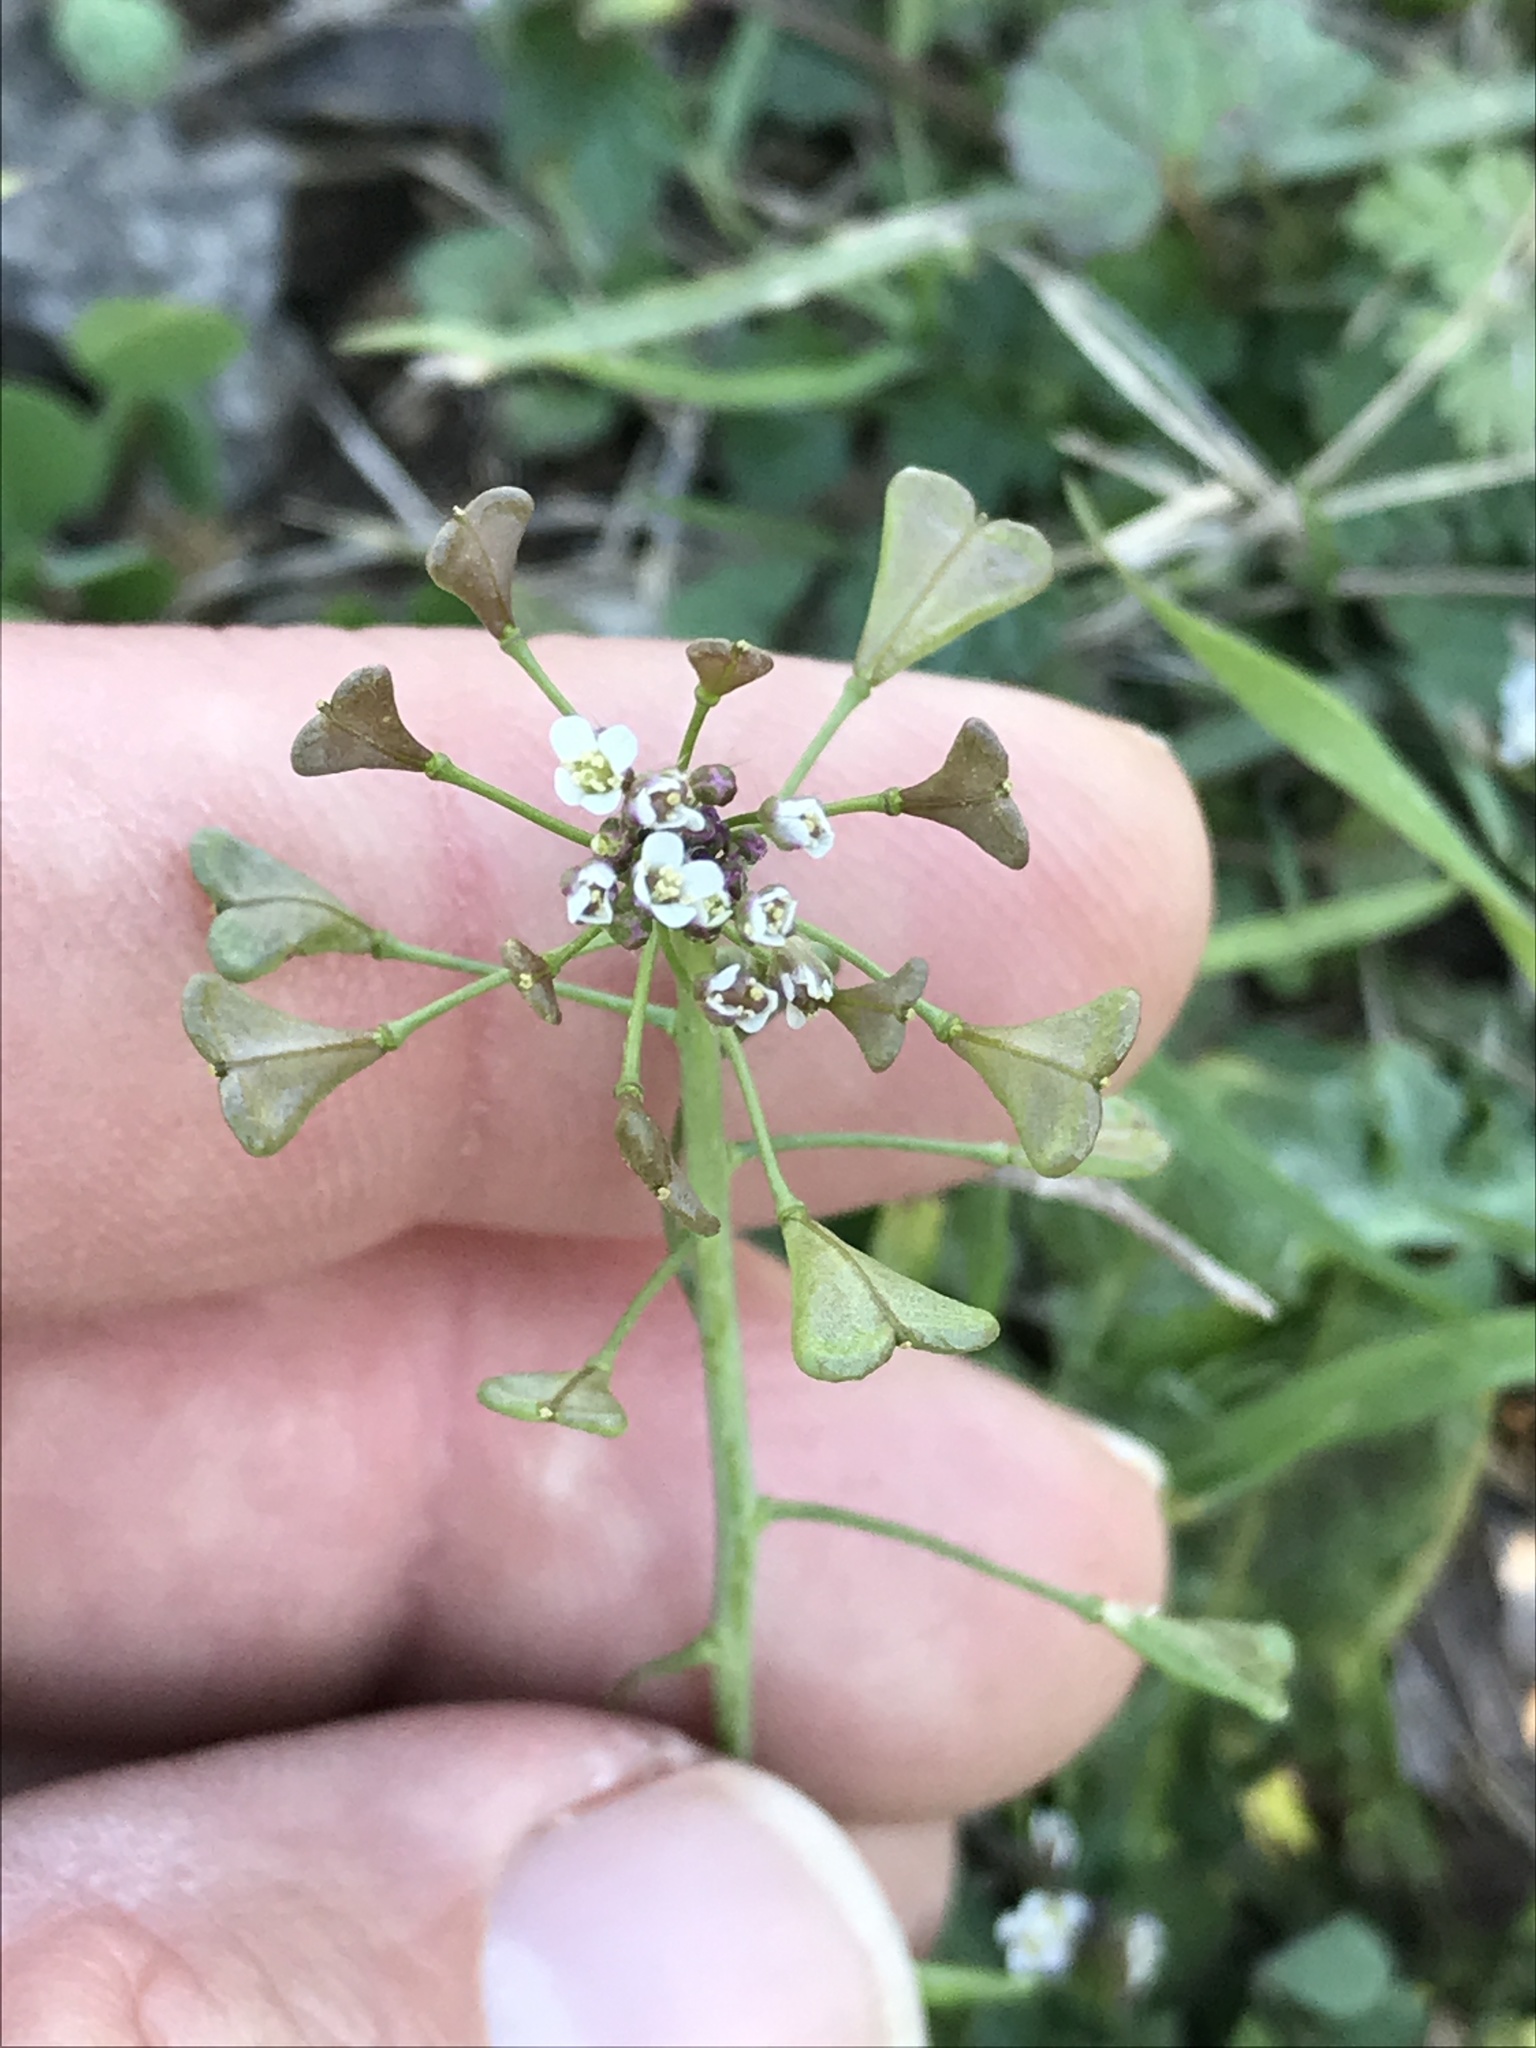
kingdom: Plantae
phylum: Tracheophyta
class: Magnoliopsida
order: Brassicales
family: Brassicaceae
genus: Capsella
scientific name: Capsella bursa-pastoris
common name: Shepherd's purse
